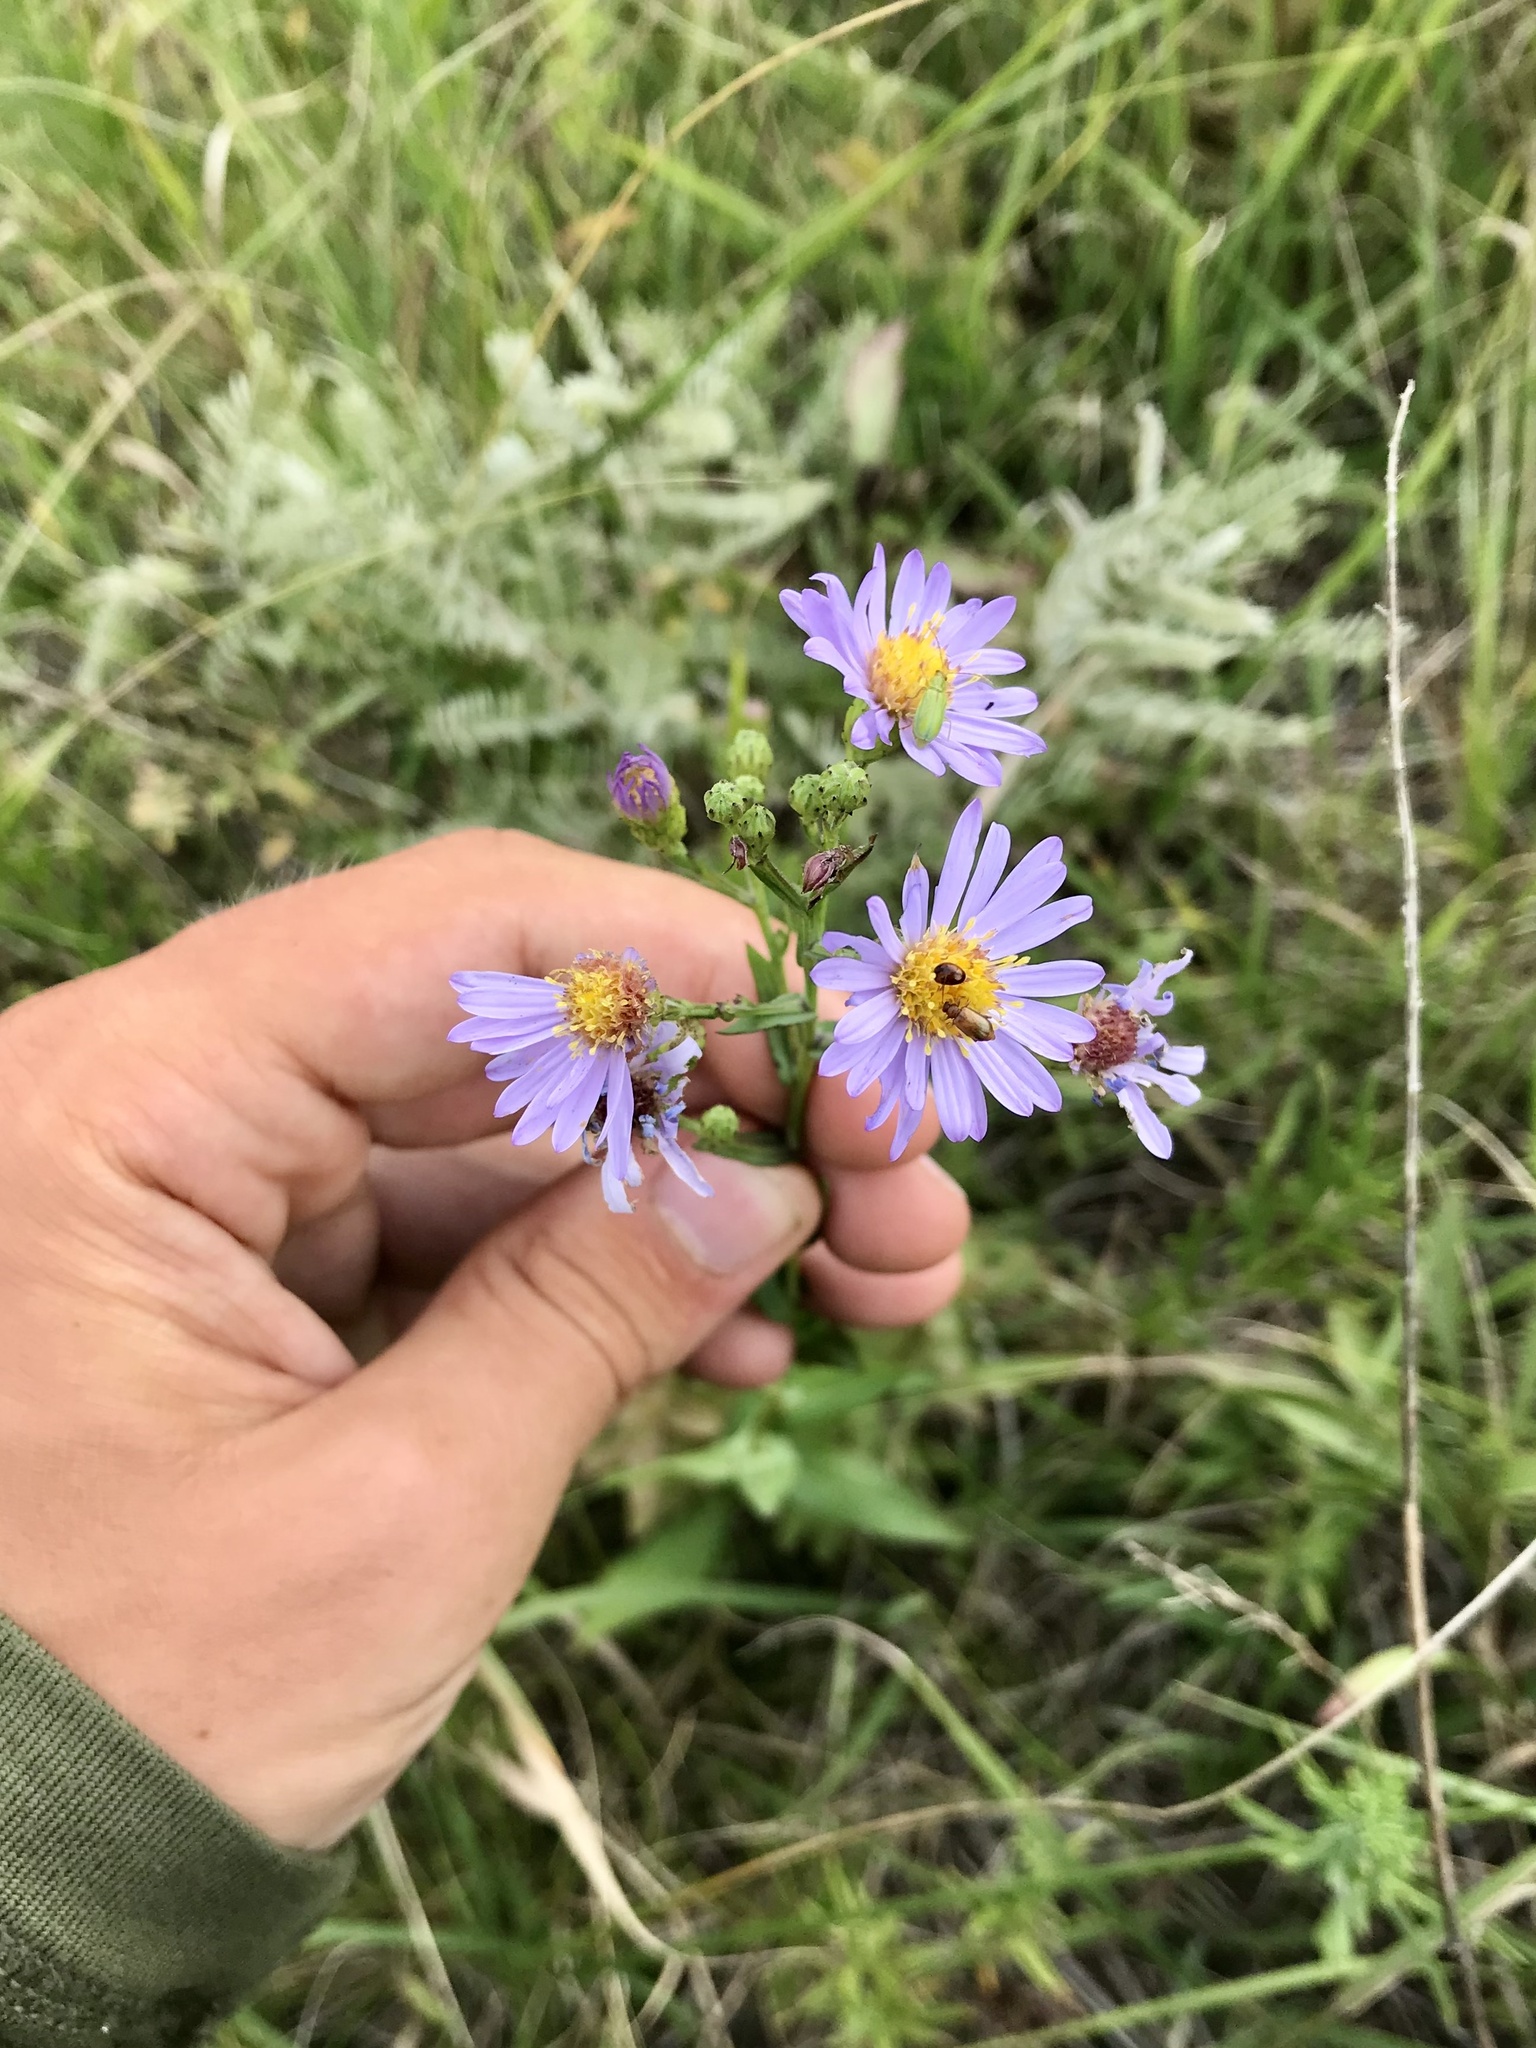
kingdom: Plantae
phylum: Tracheophyta
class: Magnoliopsida
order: Asterales
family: Asteraceae
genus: Symphyotrichum
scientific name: Symphyotrichum laeve
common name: Glaucous aster
